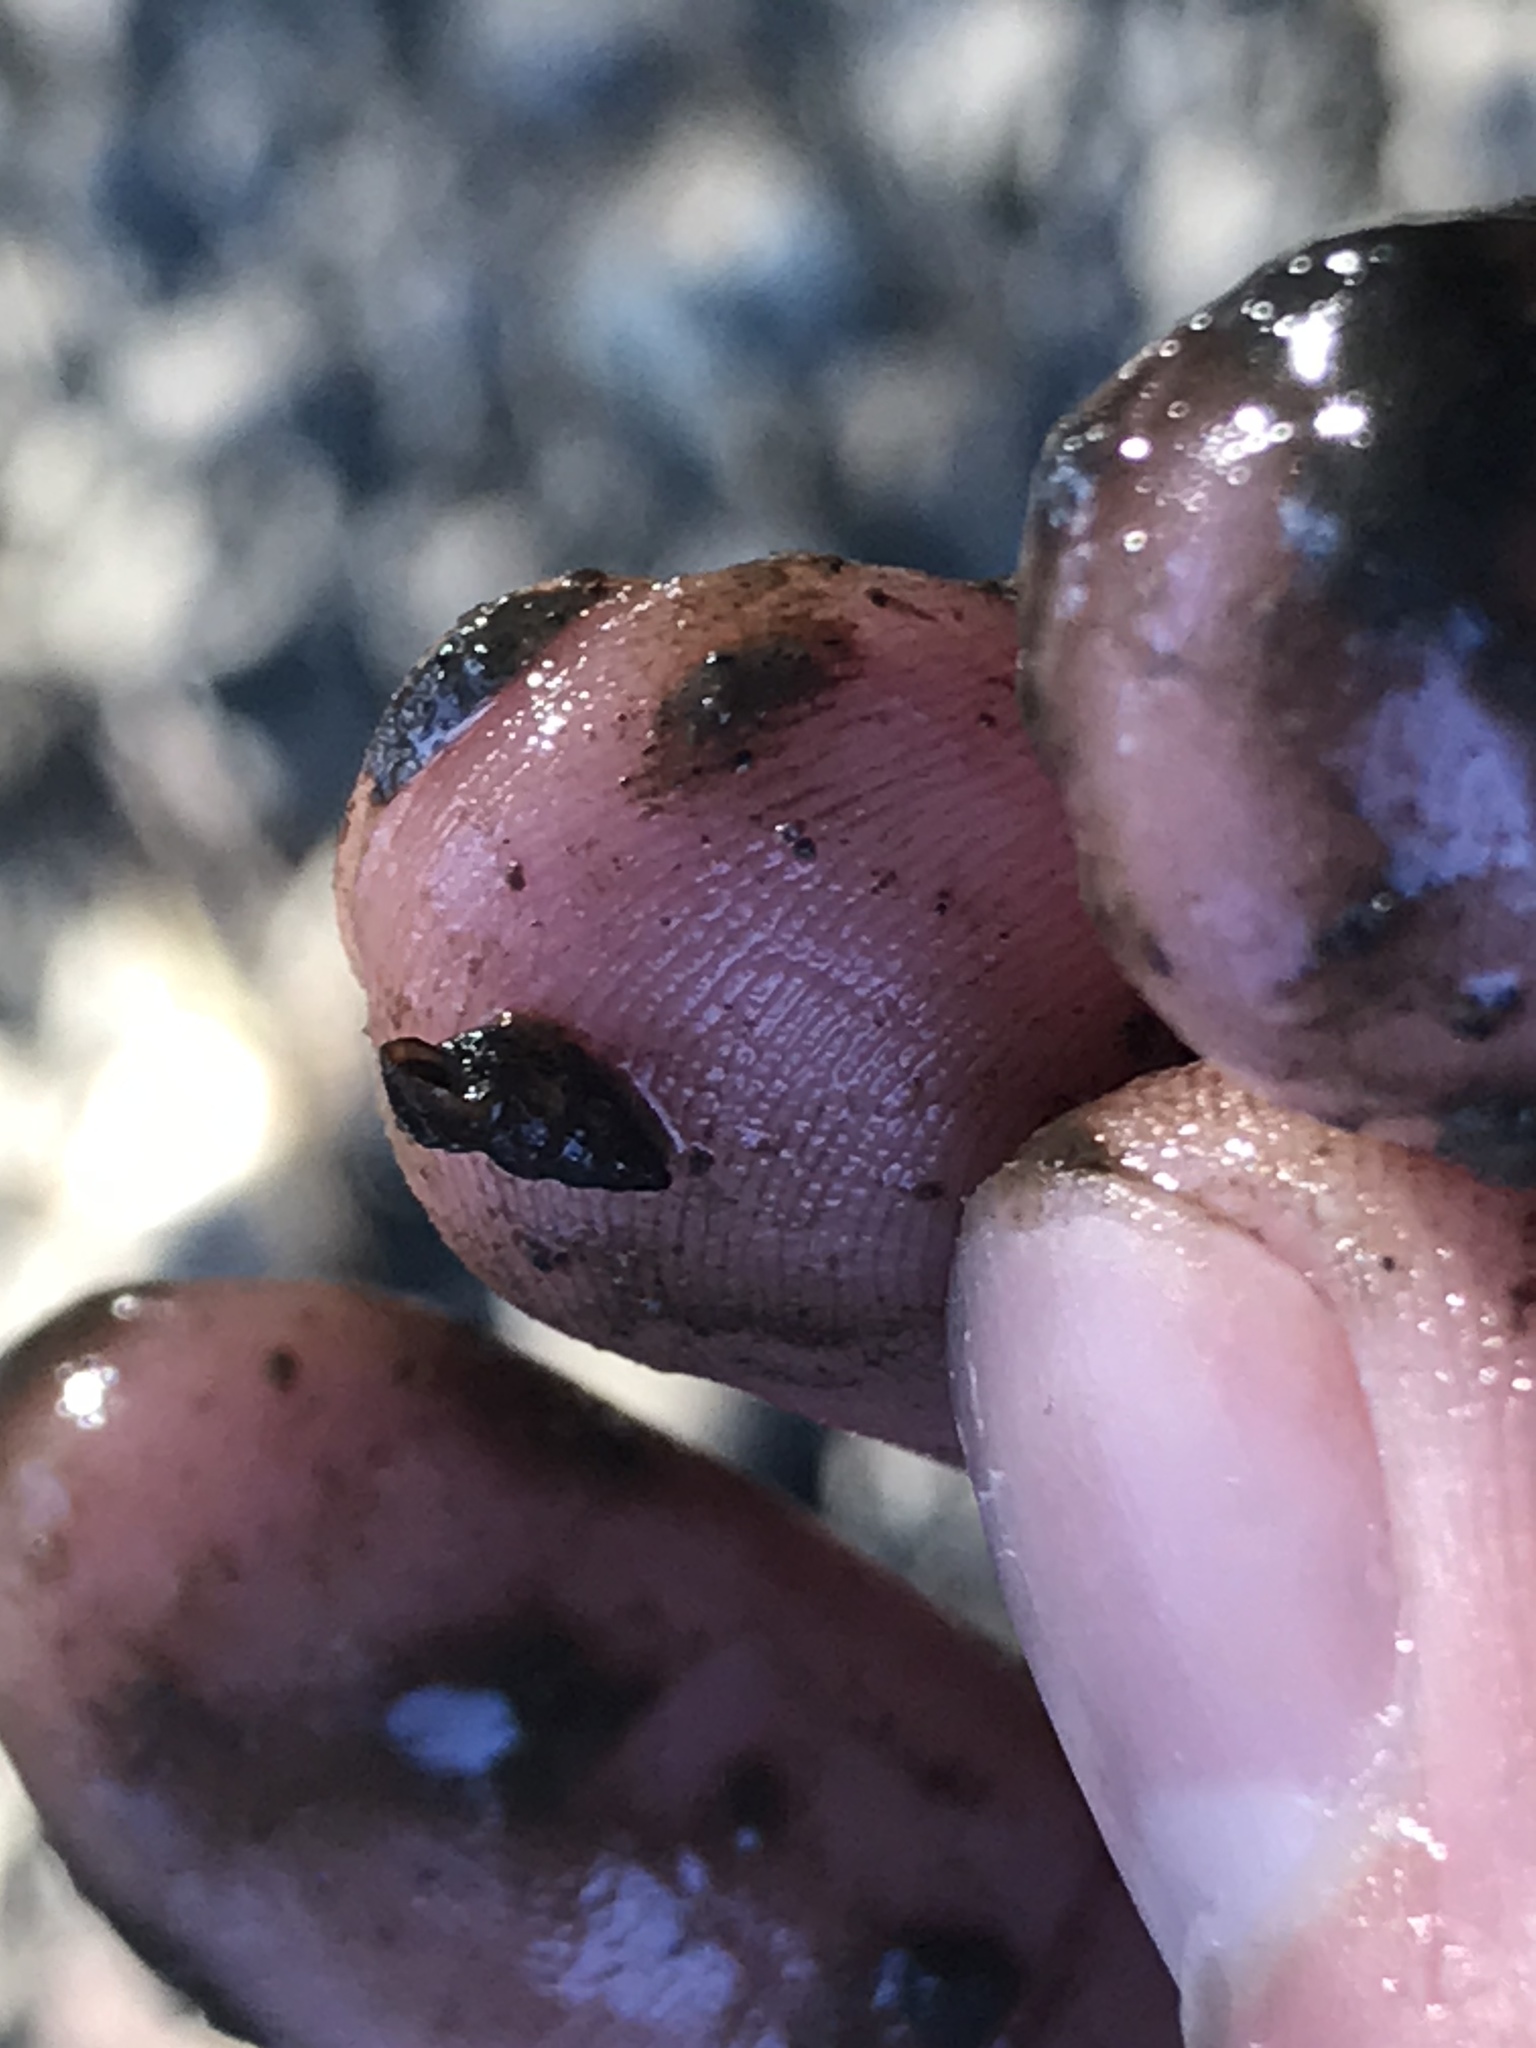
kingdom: Animalia
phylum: Mollusca
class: Gastropoda
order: Littorinimorpha
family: Tateidae
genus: Potamopyrgus
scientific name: Potamopyrgus antipodarum
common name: Jenkins' spire snail
